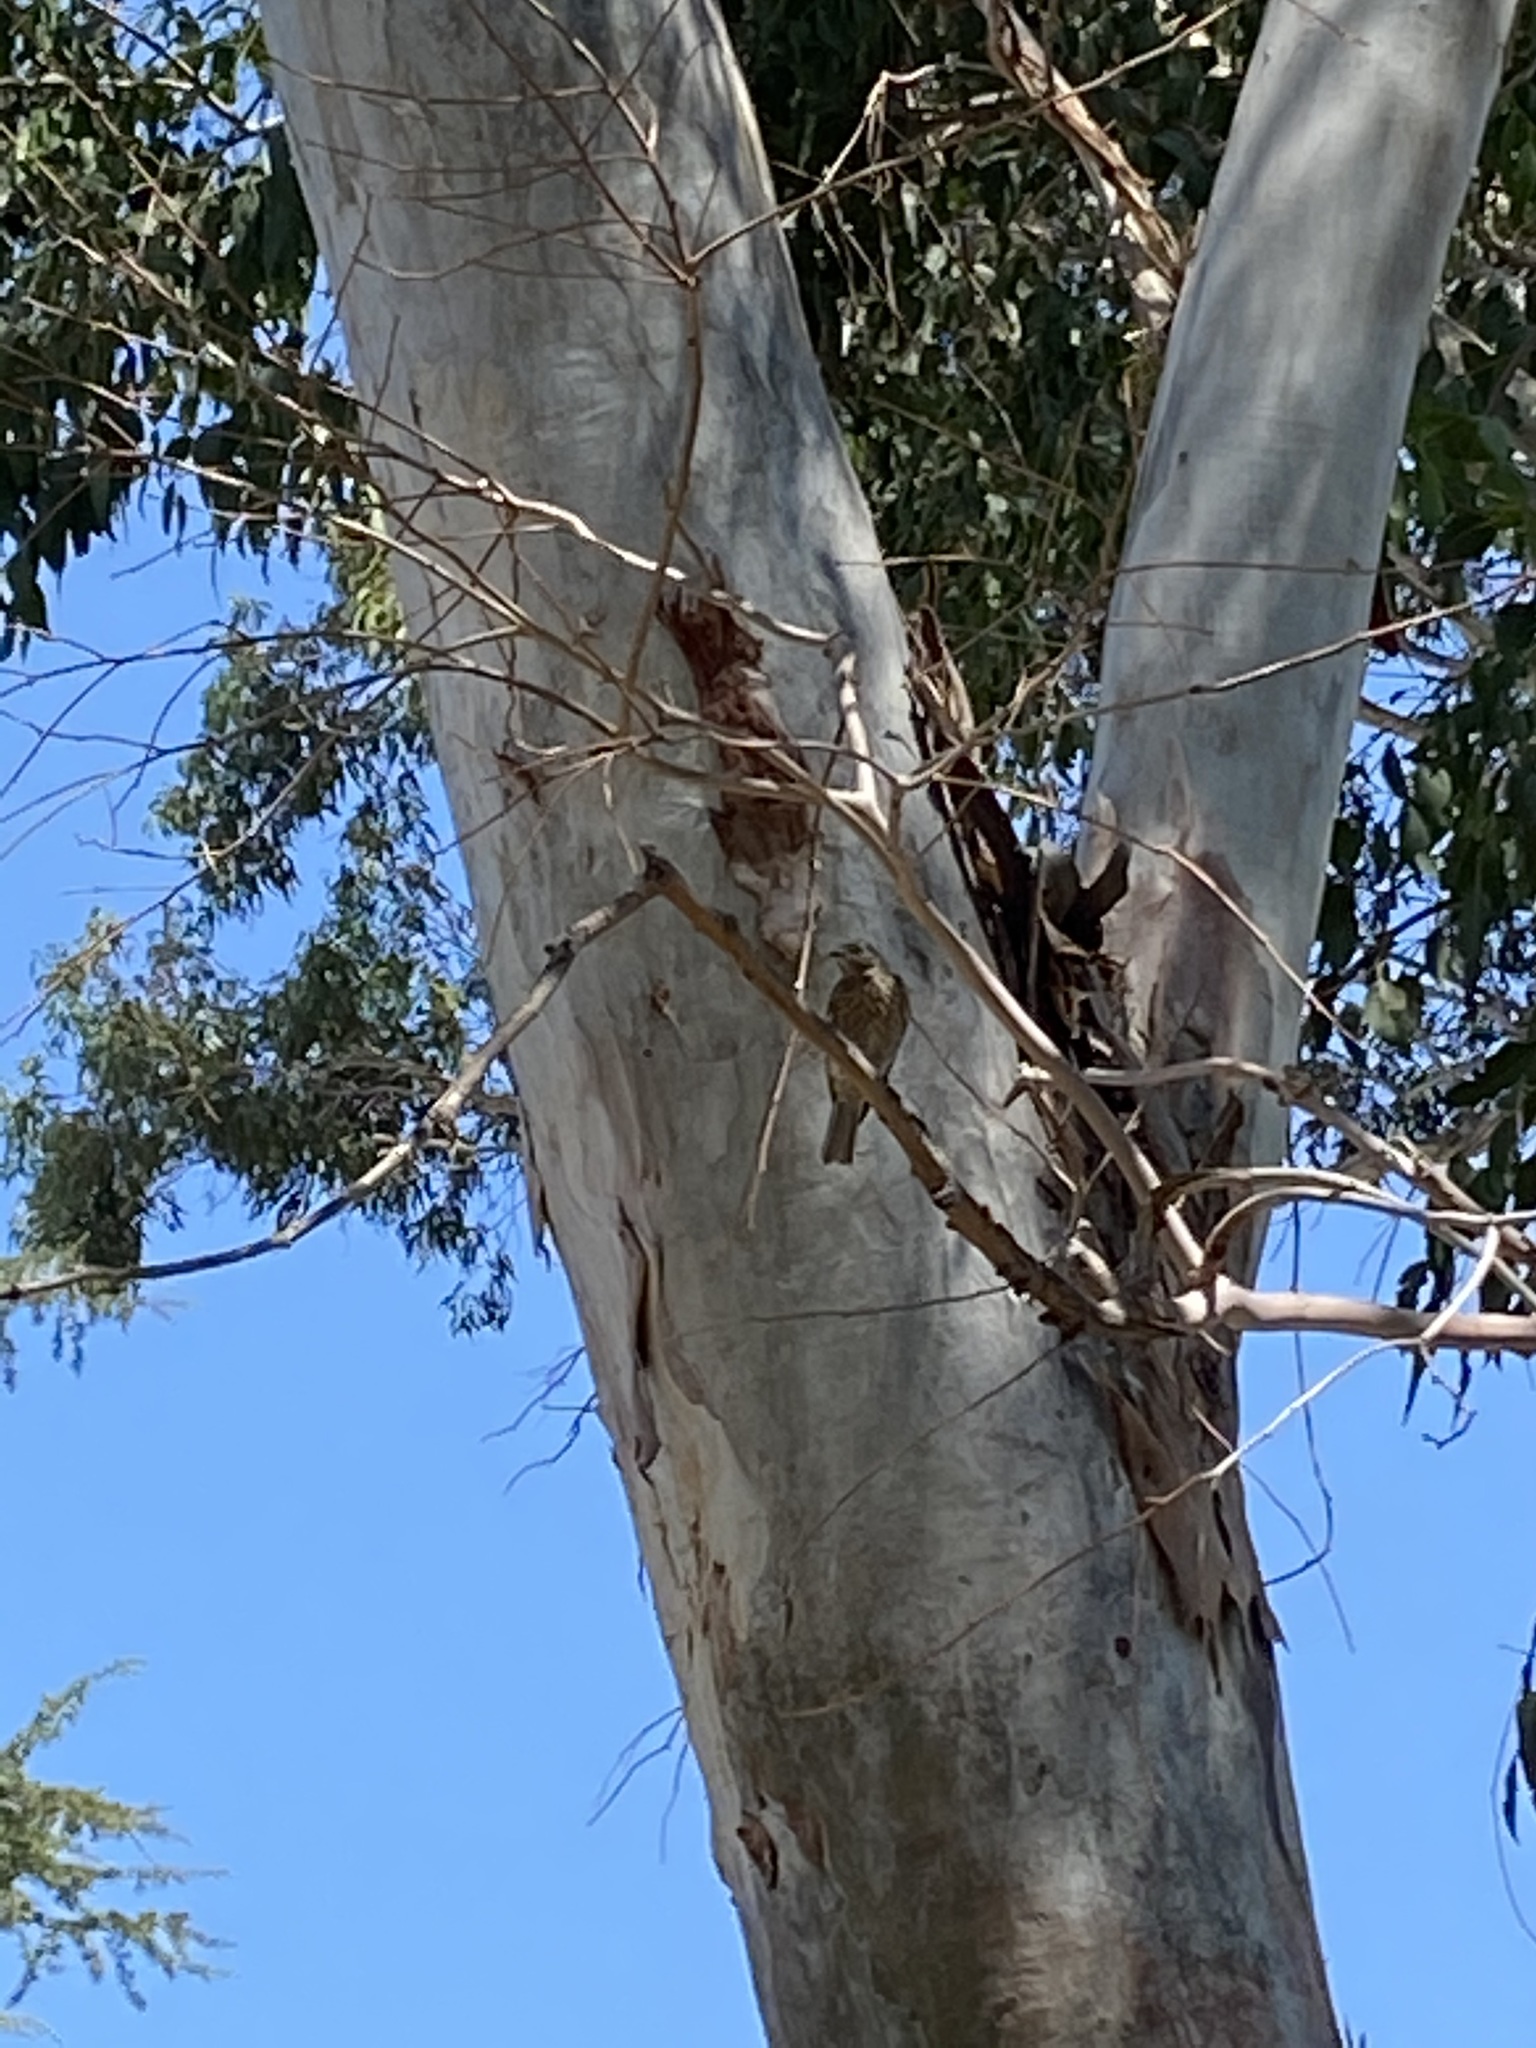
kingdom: Animalia
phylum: Chordata
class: Aves
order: Passeriformes
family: Turdidae
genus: Sialia
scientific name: Sialia mexicana
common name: Western bluebird
